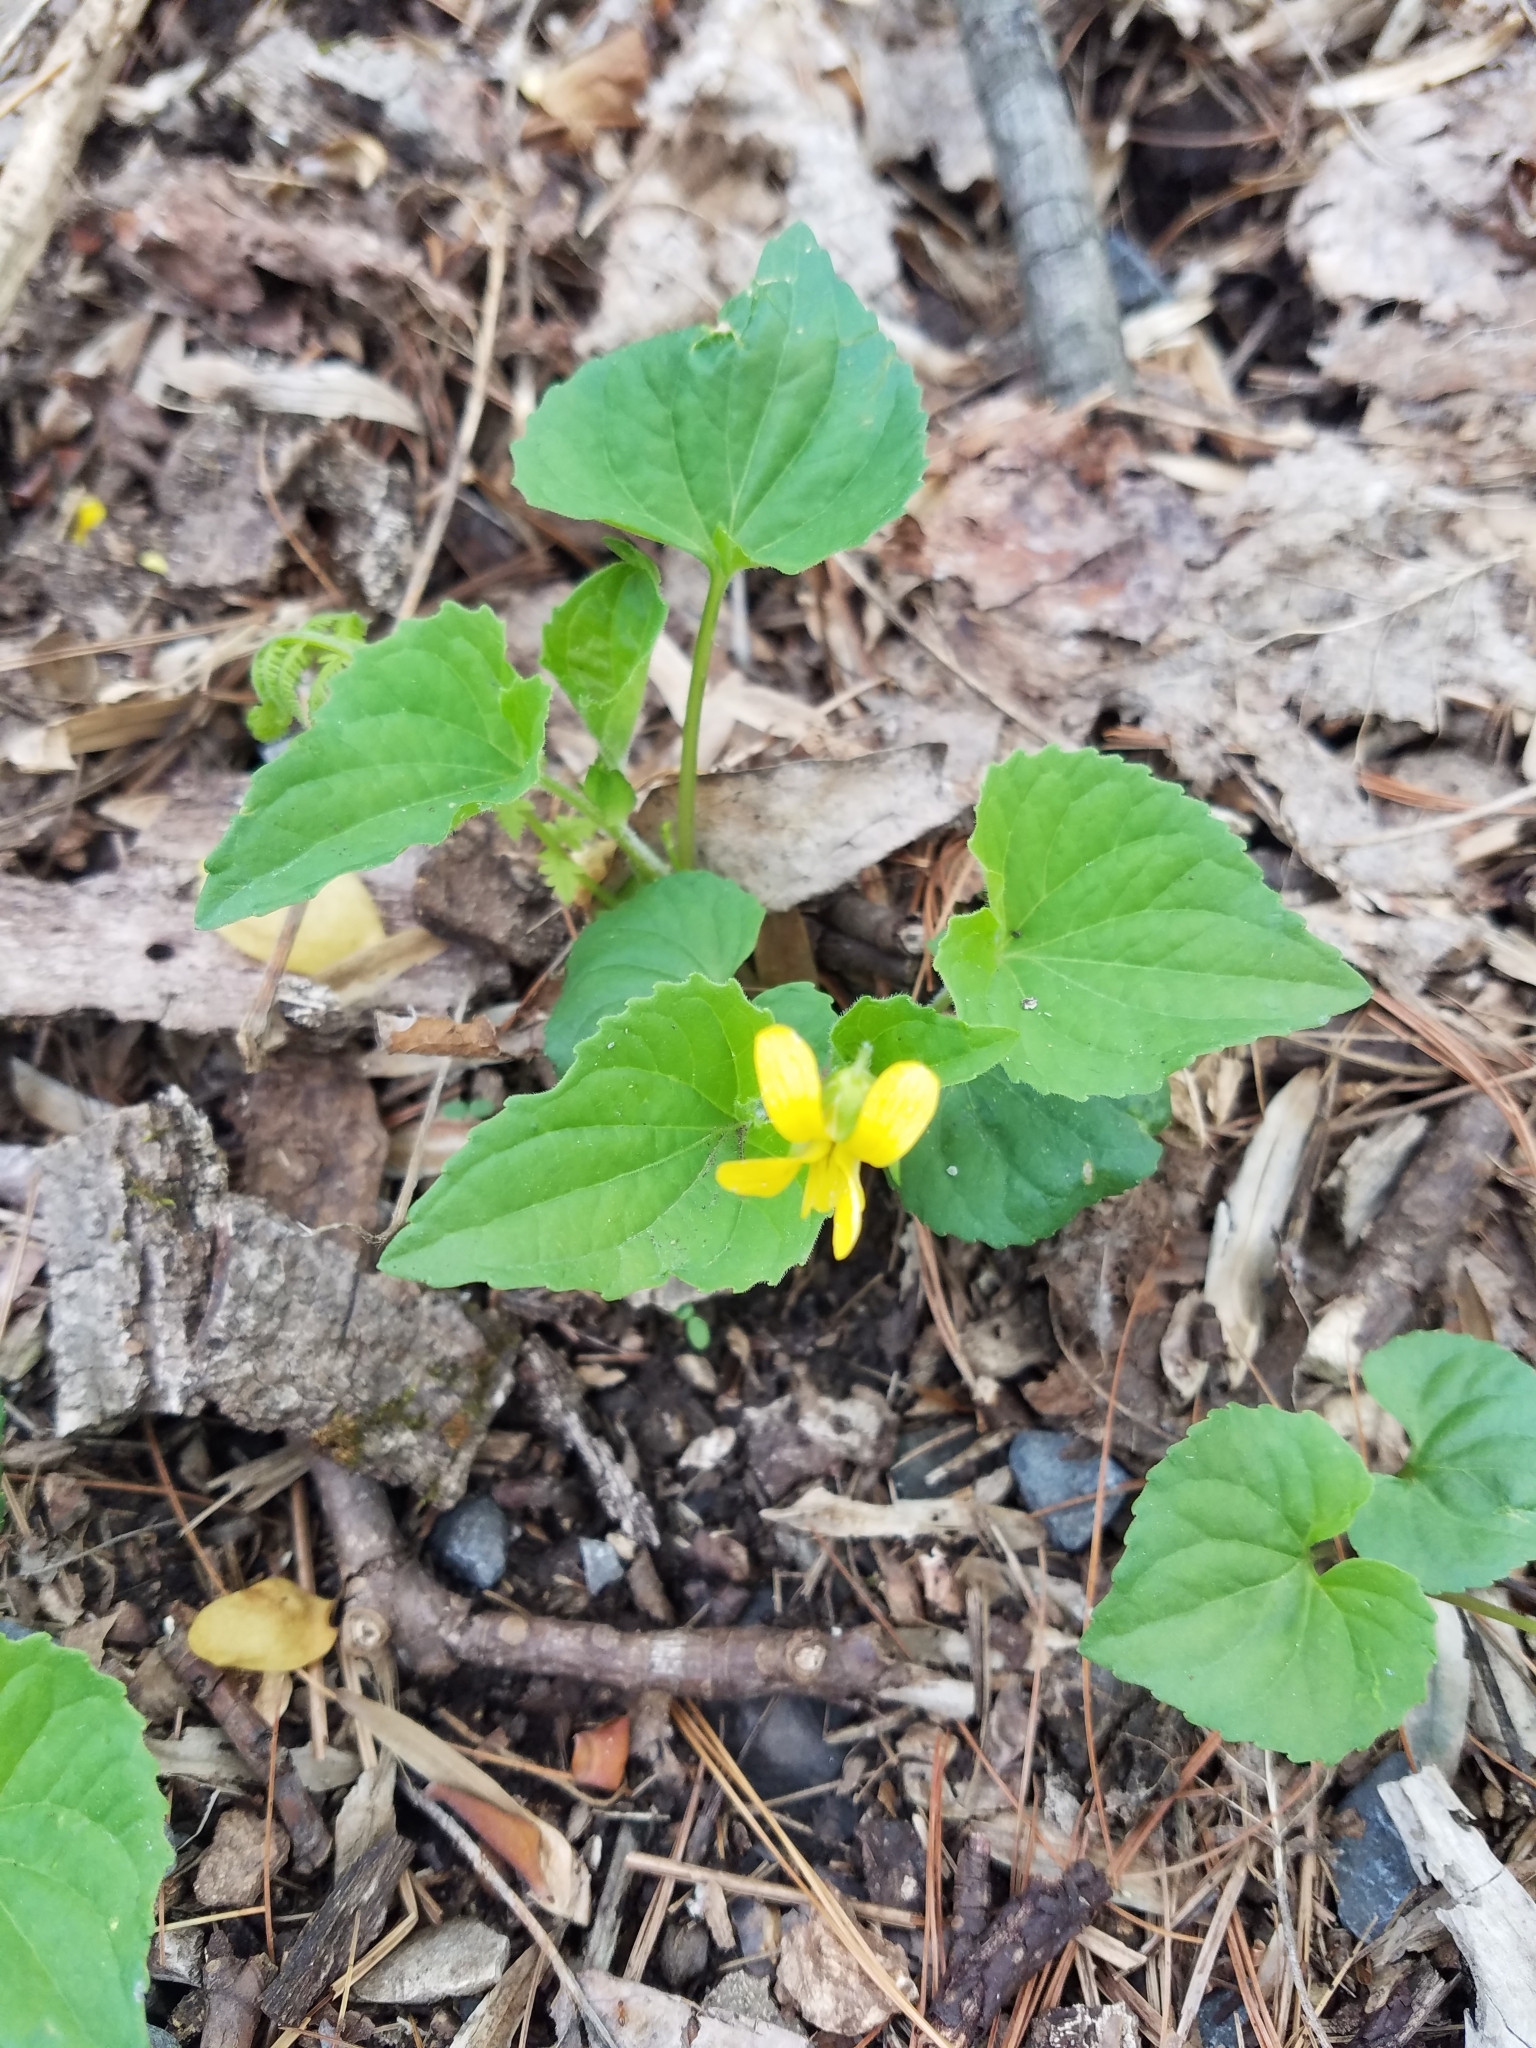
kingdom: Plantae
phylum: Tracheophyta
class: Magnoliopsida
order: Malpighiales
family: Violaceae
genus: Viola
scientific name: Viola eriocarpa
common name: Smooth yellow violet
